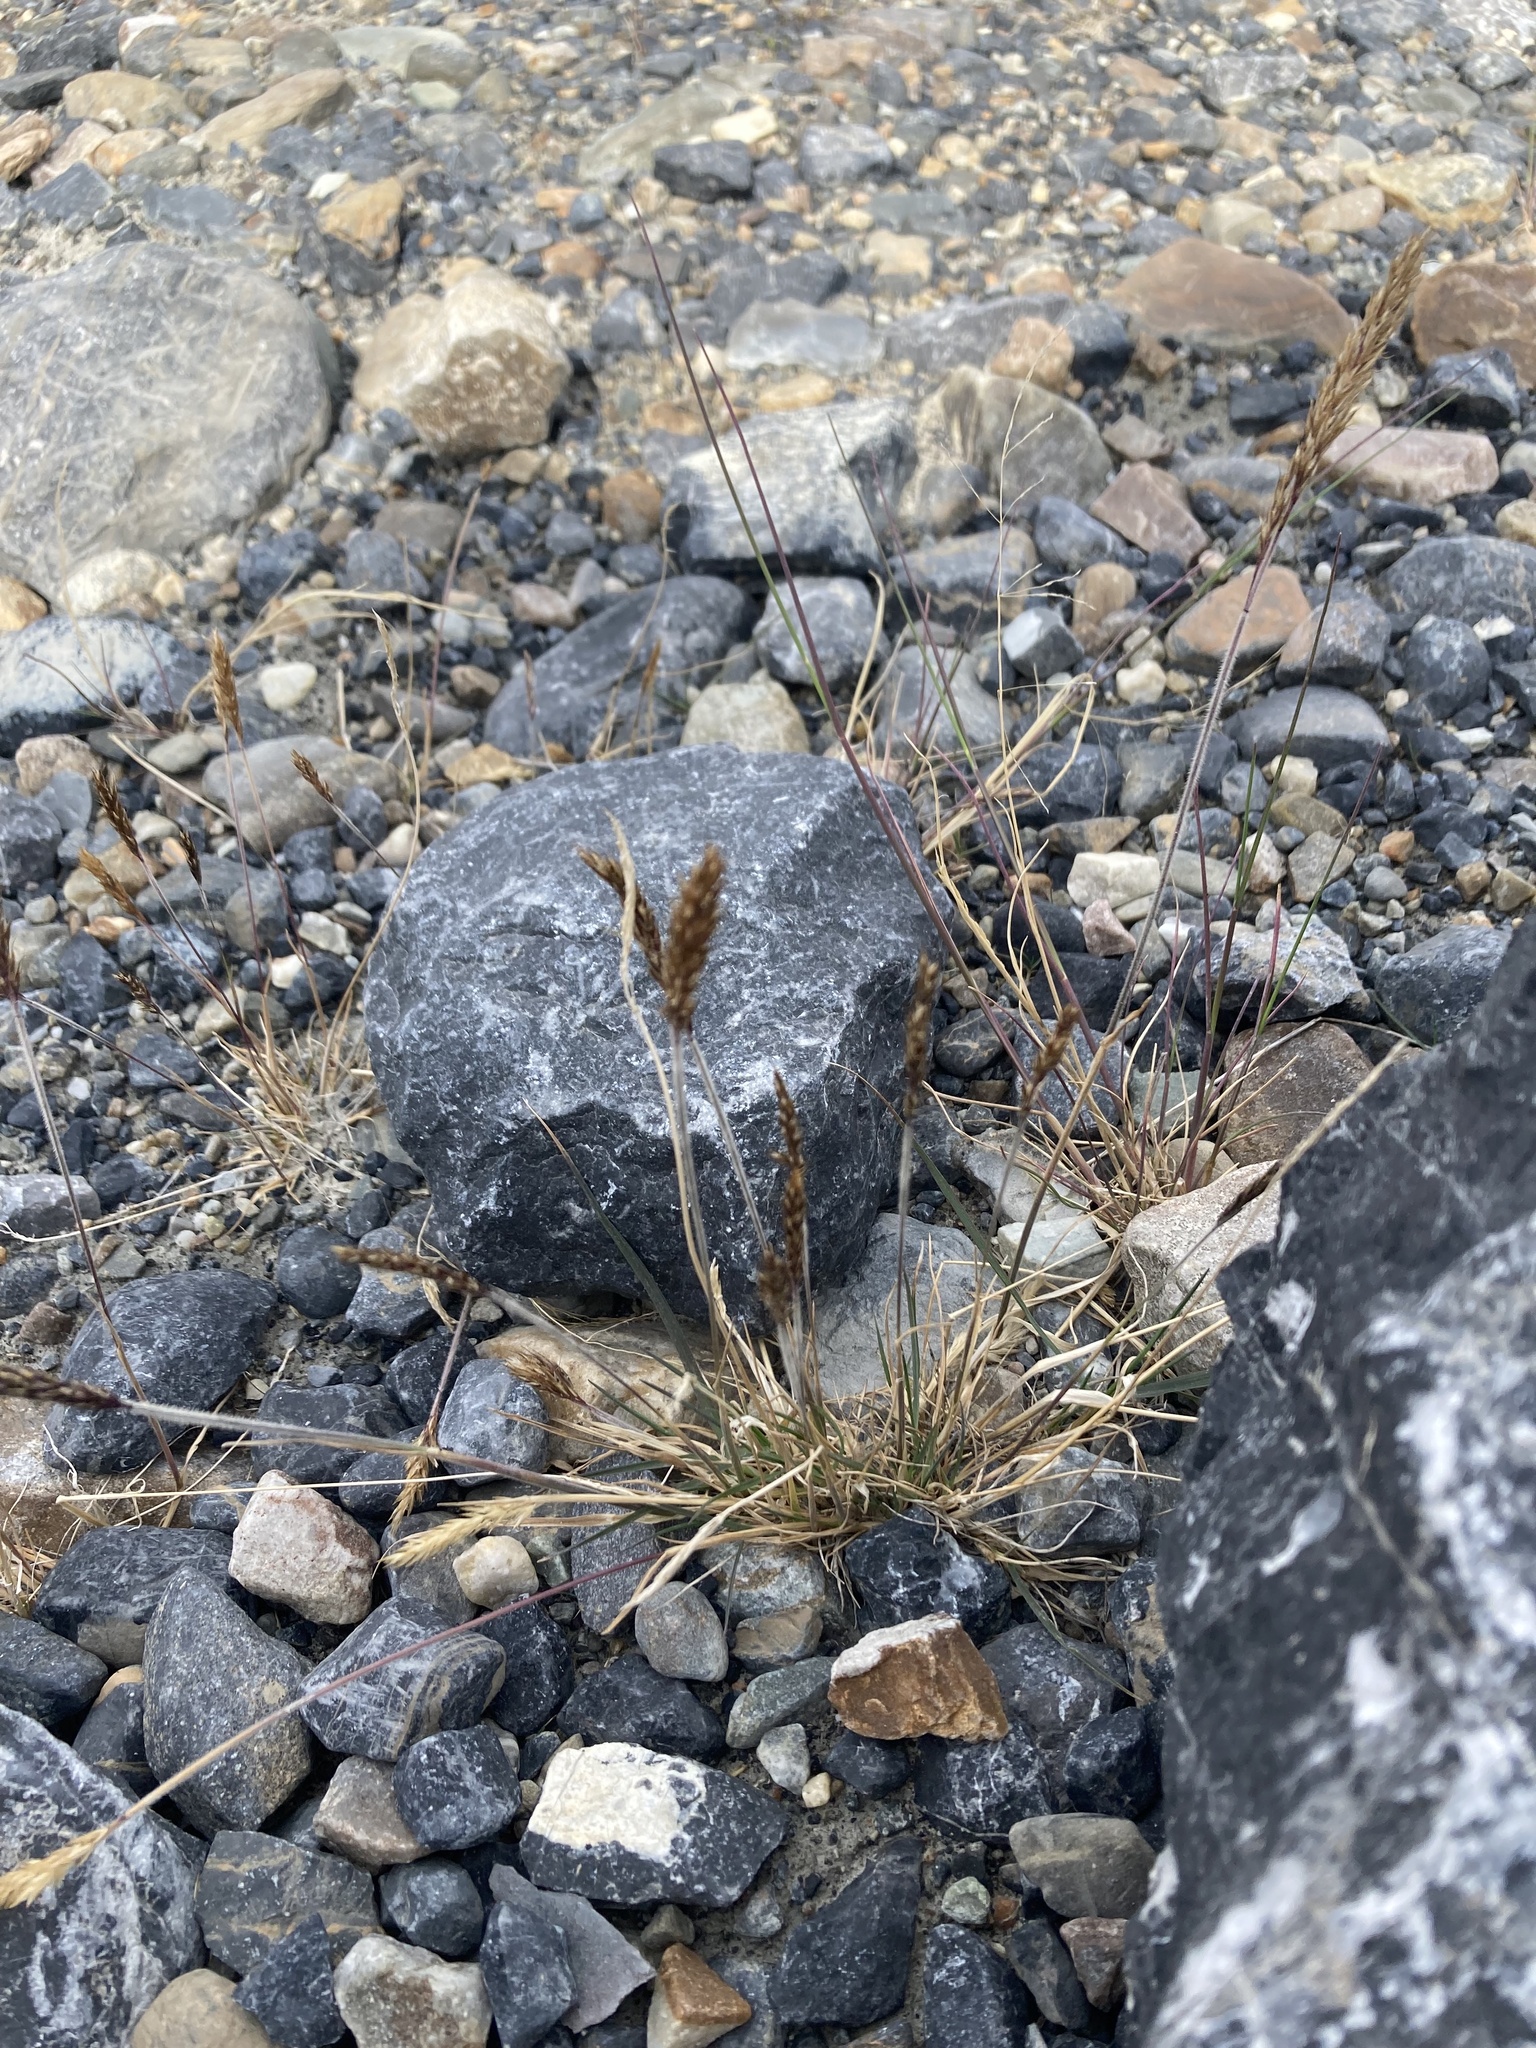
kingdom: Plantae
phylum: Tracheophyta
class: Liliopsida
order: Poales
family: Poaceae
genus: Koeleria
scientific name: Koeleria spicata
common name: Mountain trisetum
